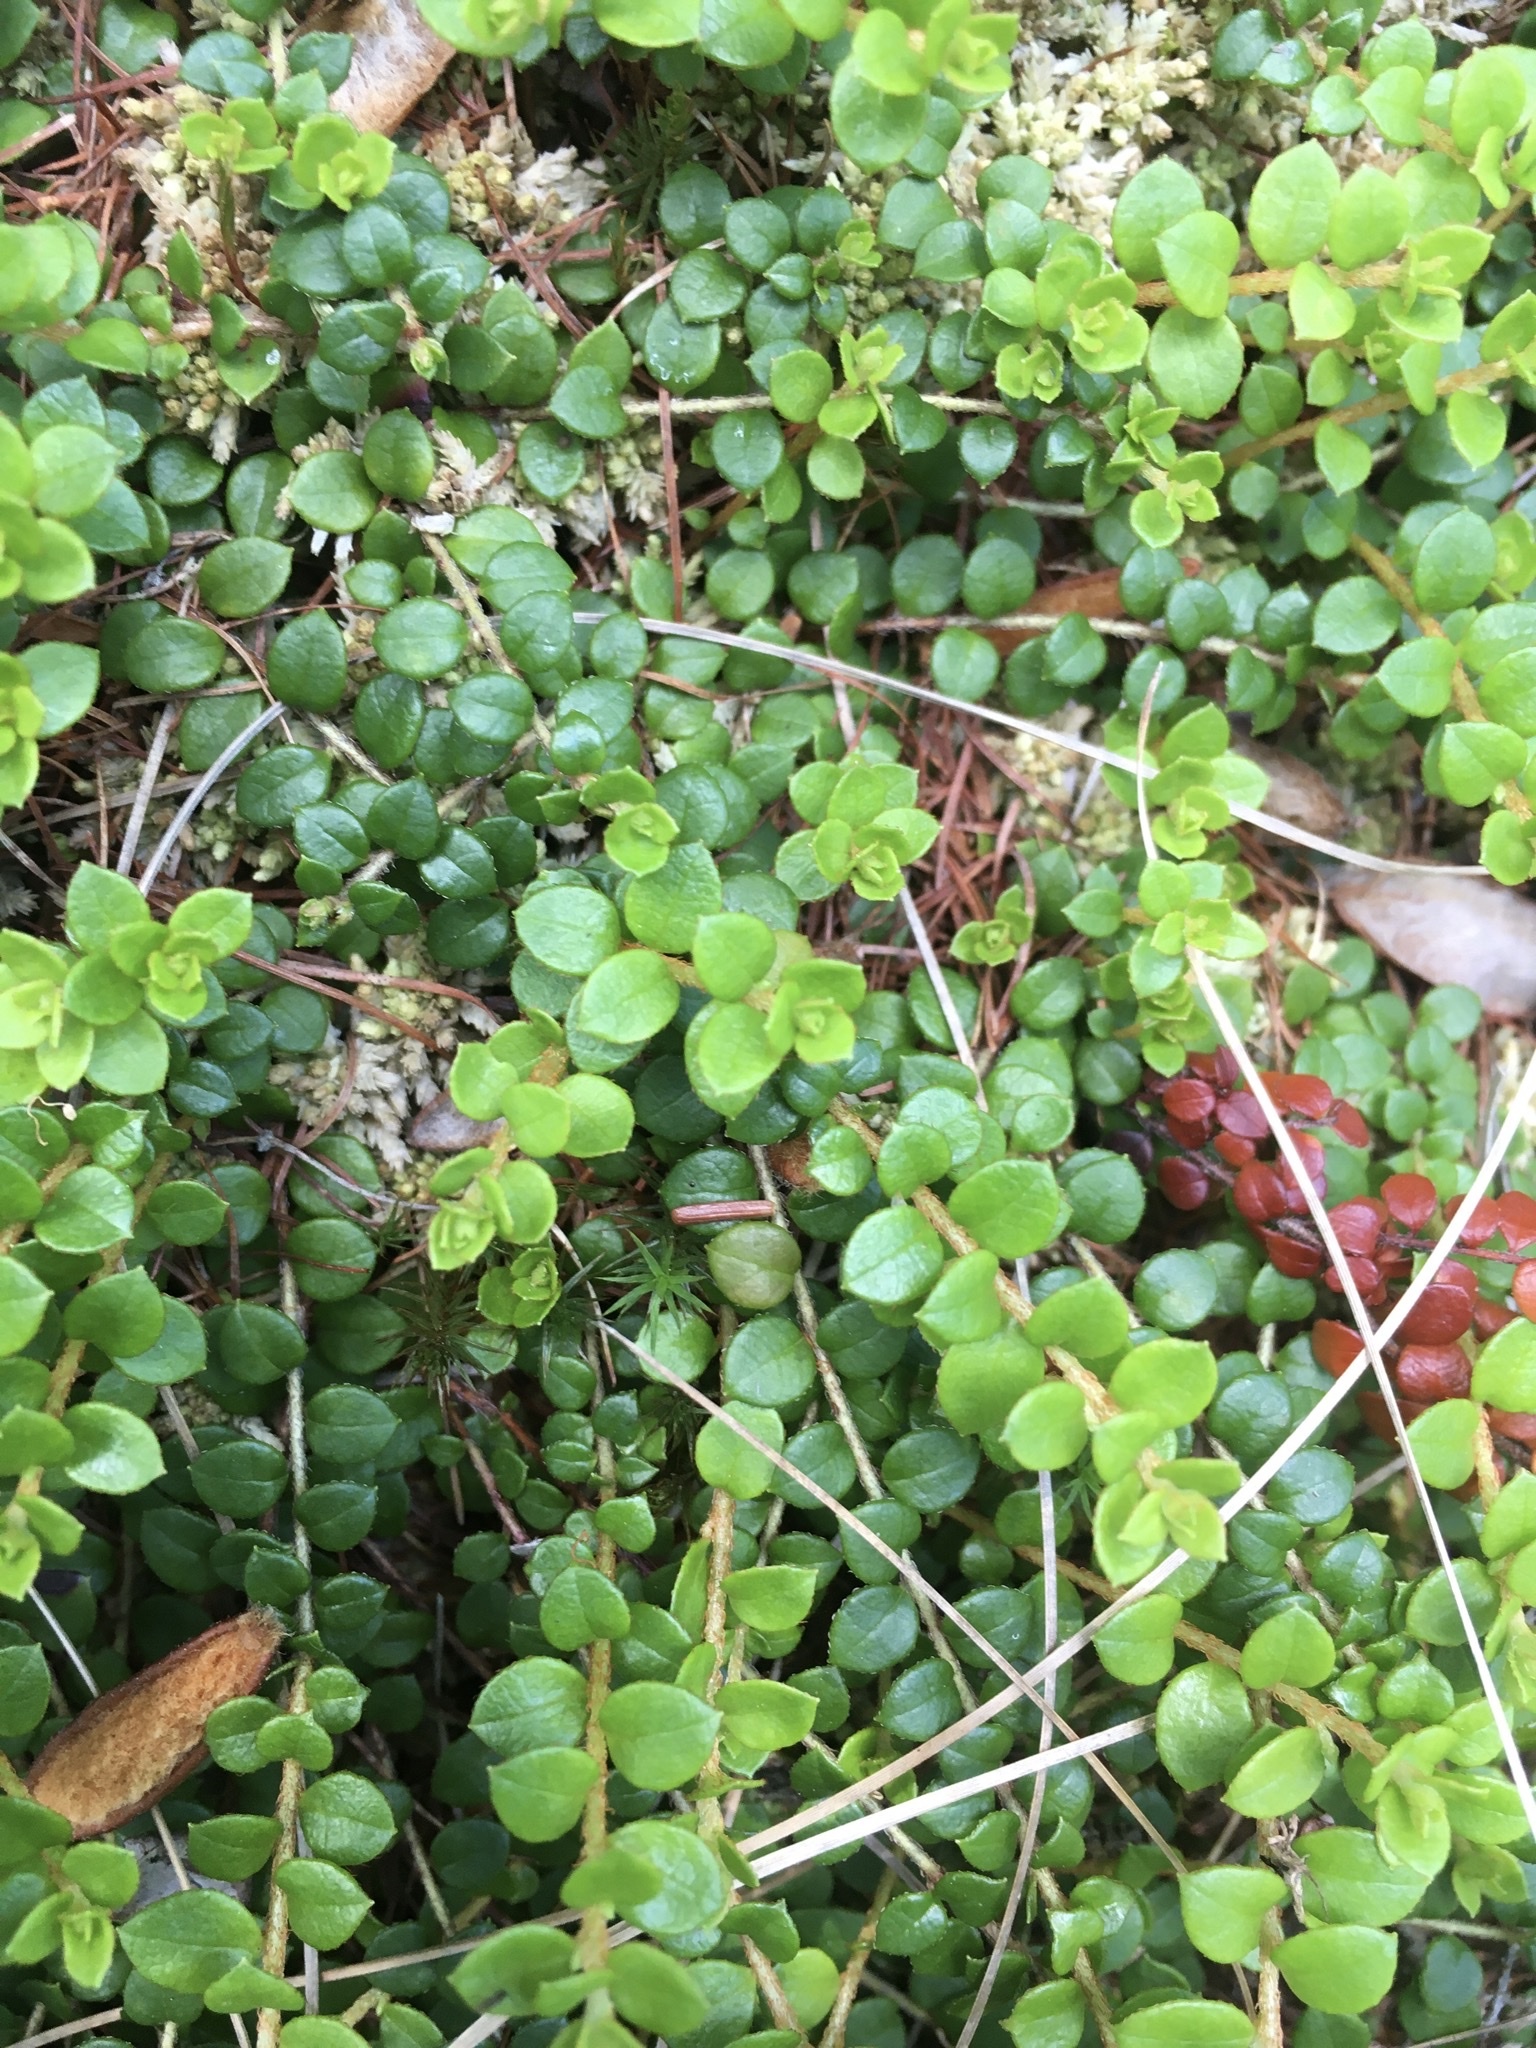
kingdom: Plantae
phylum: Tracheophyta
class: Magnoliopsida
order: Ericales
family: Ericaceae
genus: Gaultheria
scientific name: Gaultheria hispidula
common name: Cancer wintergreen
